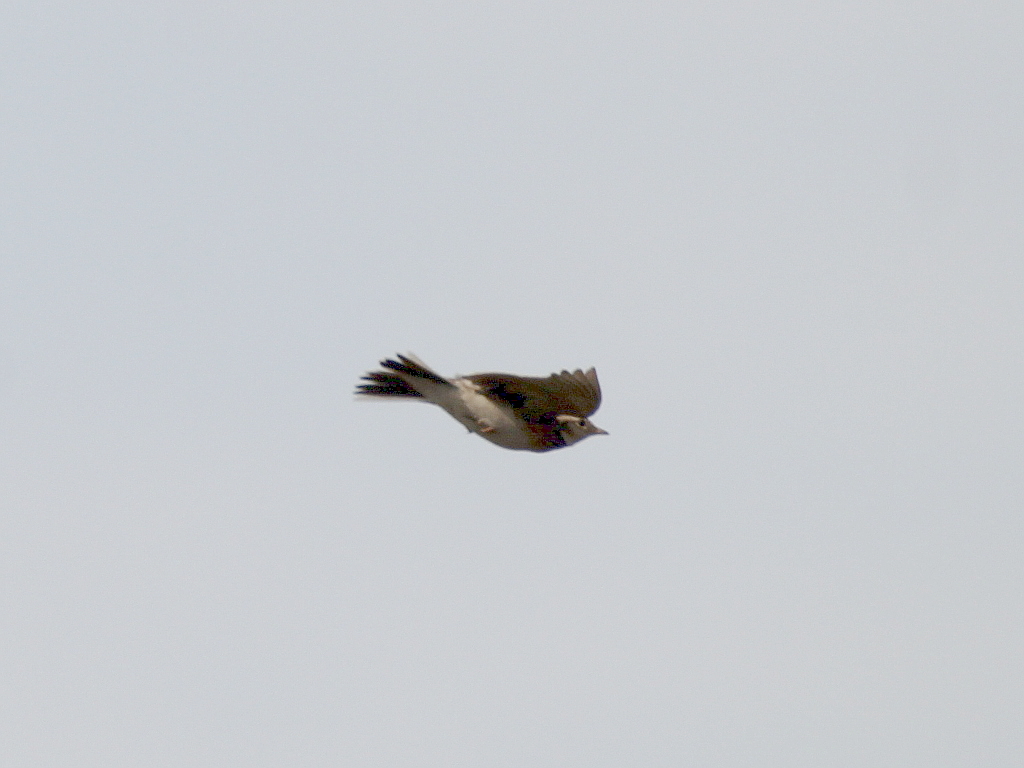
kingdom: Animalia
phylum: Chordata
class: Aves
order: Passeriformes
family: Alaudidae
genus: Alauda
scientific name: Alauda arvensis
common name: Eurasian skylark
